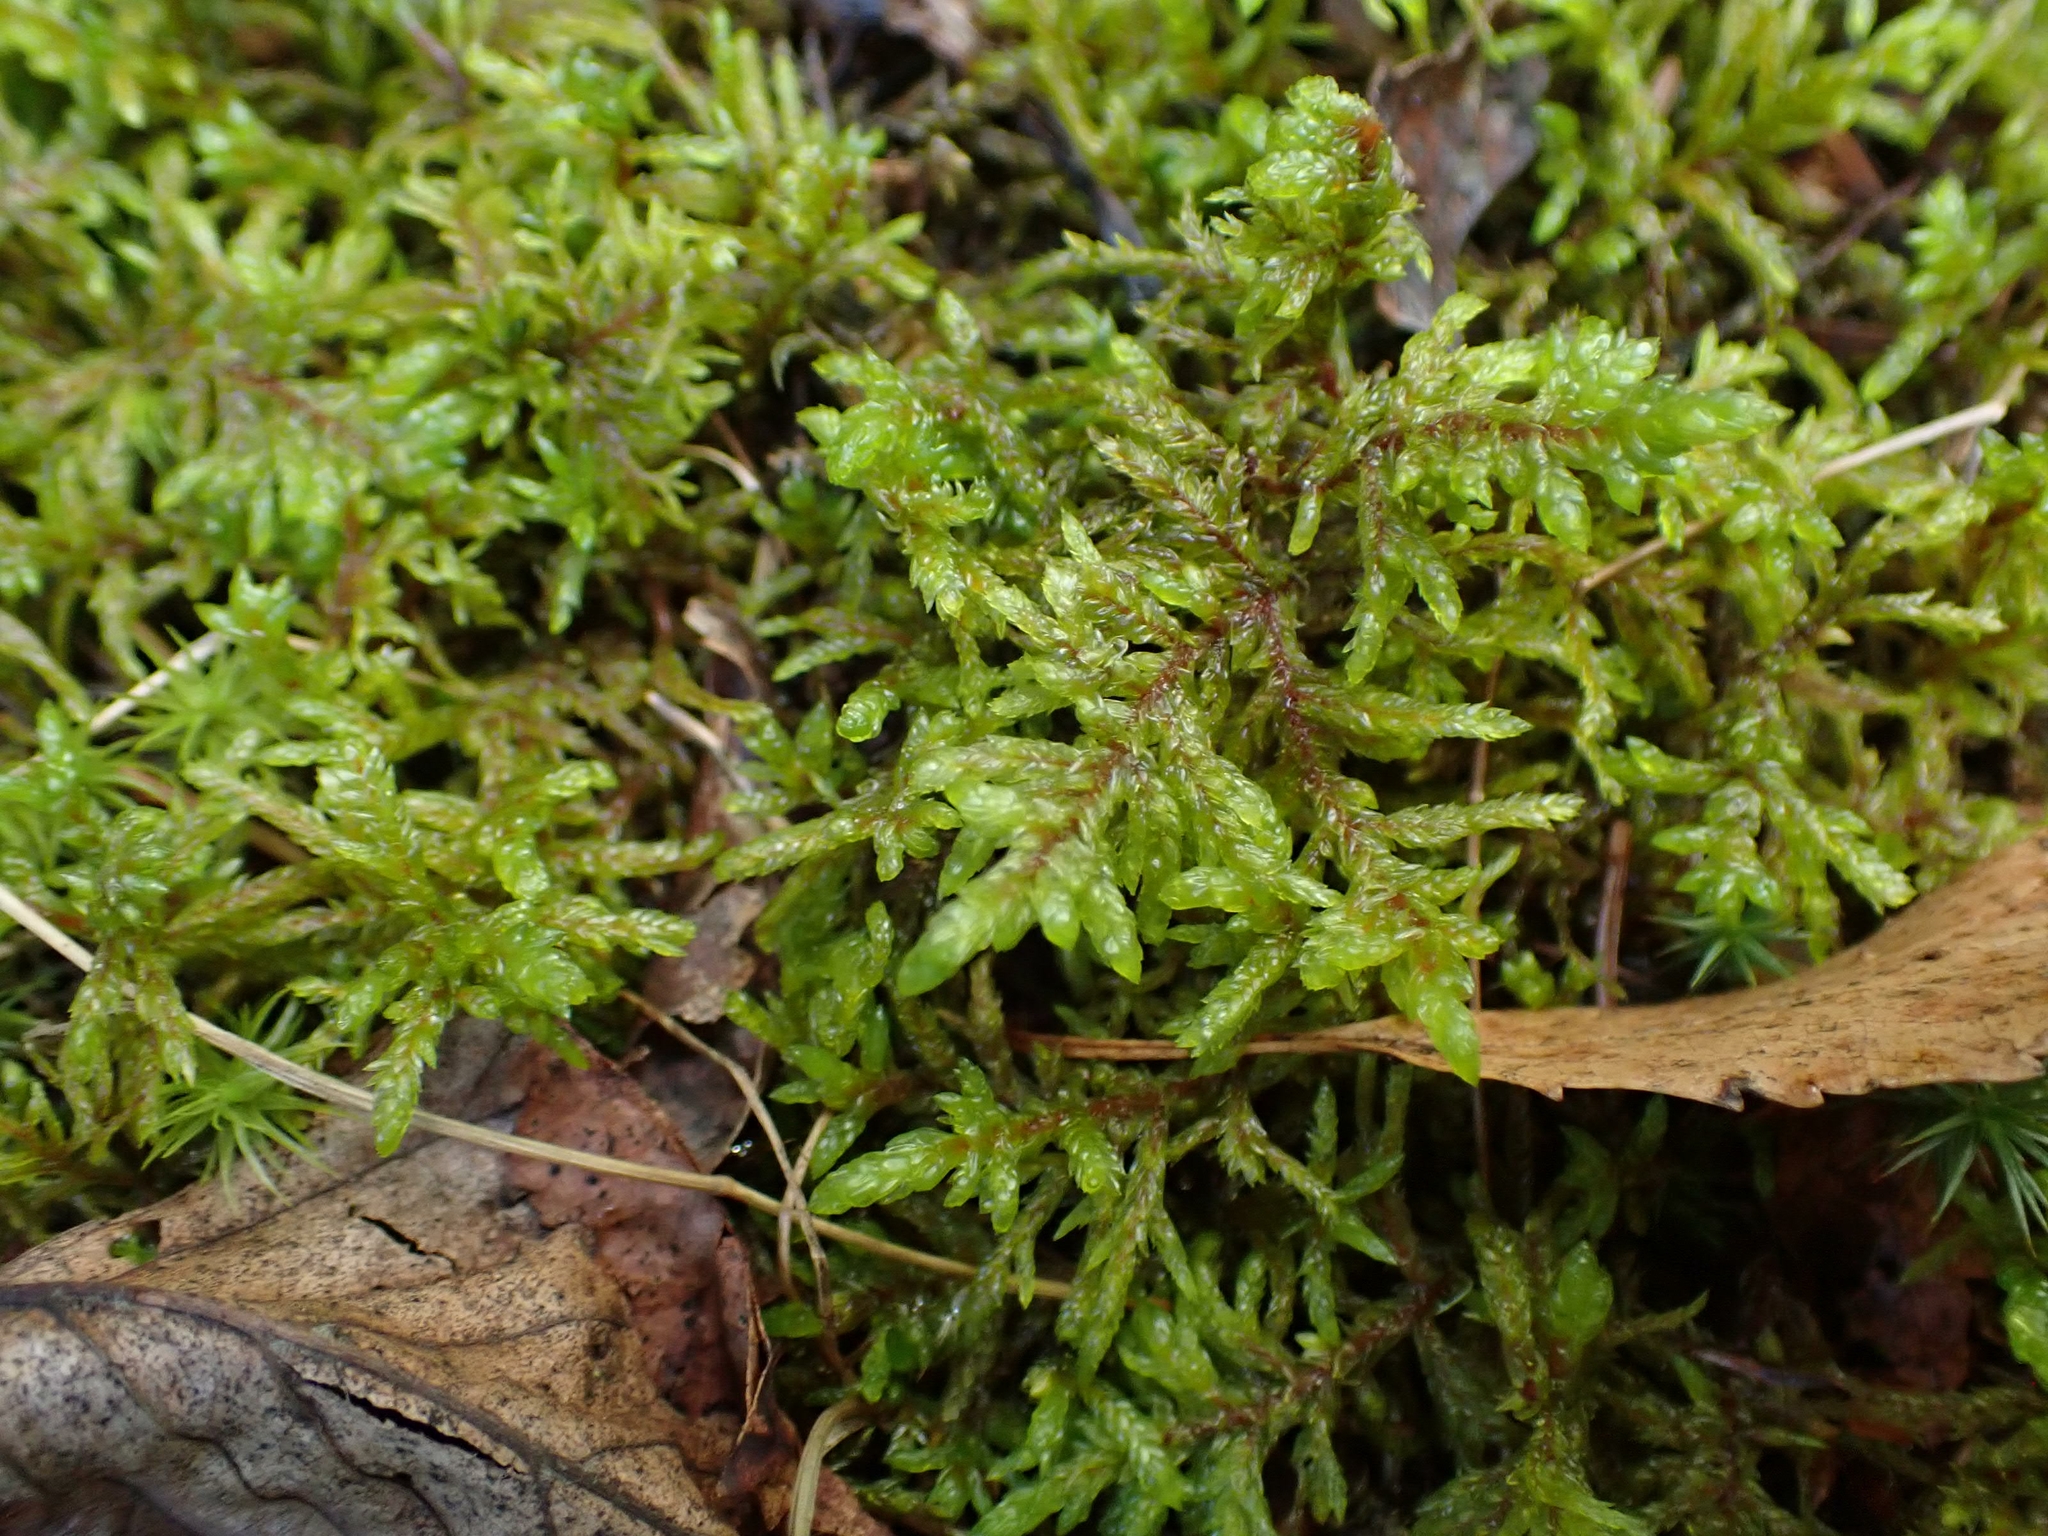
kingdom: Plantae
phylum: Bryophyta
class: Bryopsida
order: Hypnales
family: Hylocomiaceae
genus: Pleurozium
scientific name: Pleurozium schreberi
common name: Red-stemmed feather moss
